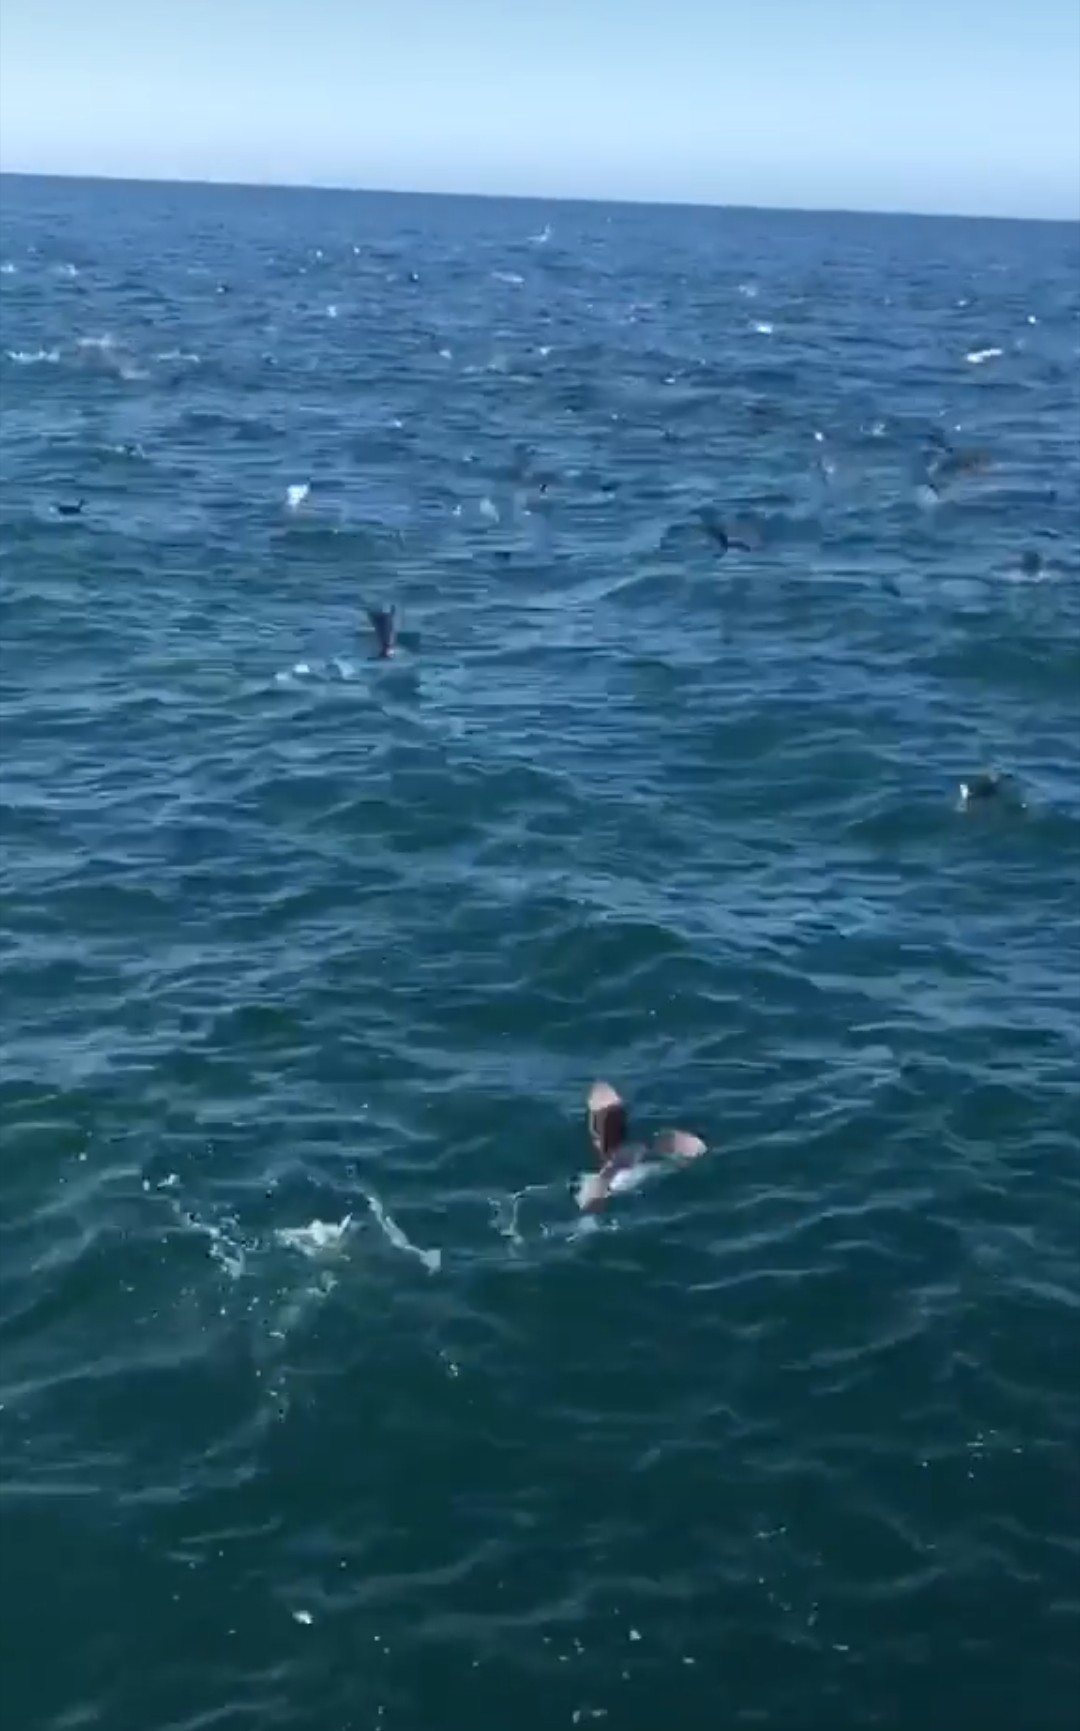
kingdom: Animalia
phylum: Chordata
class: Aves
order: Procellariiformes
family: Procellariidae
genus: Puffinus
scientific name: Puffinus gavia
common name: Fluttering shearwater
